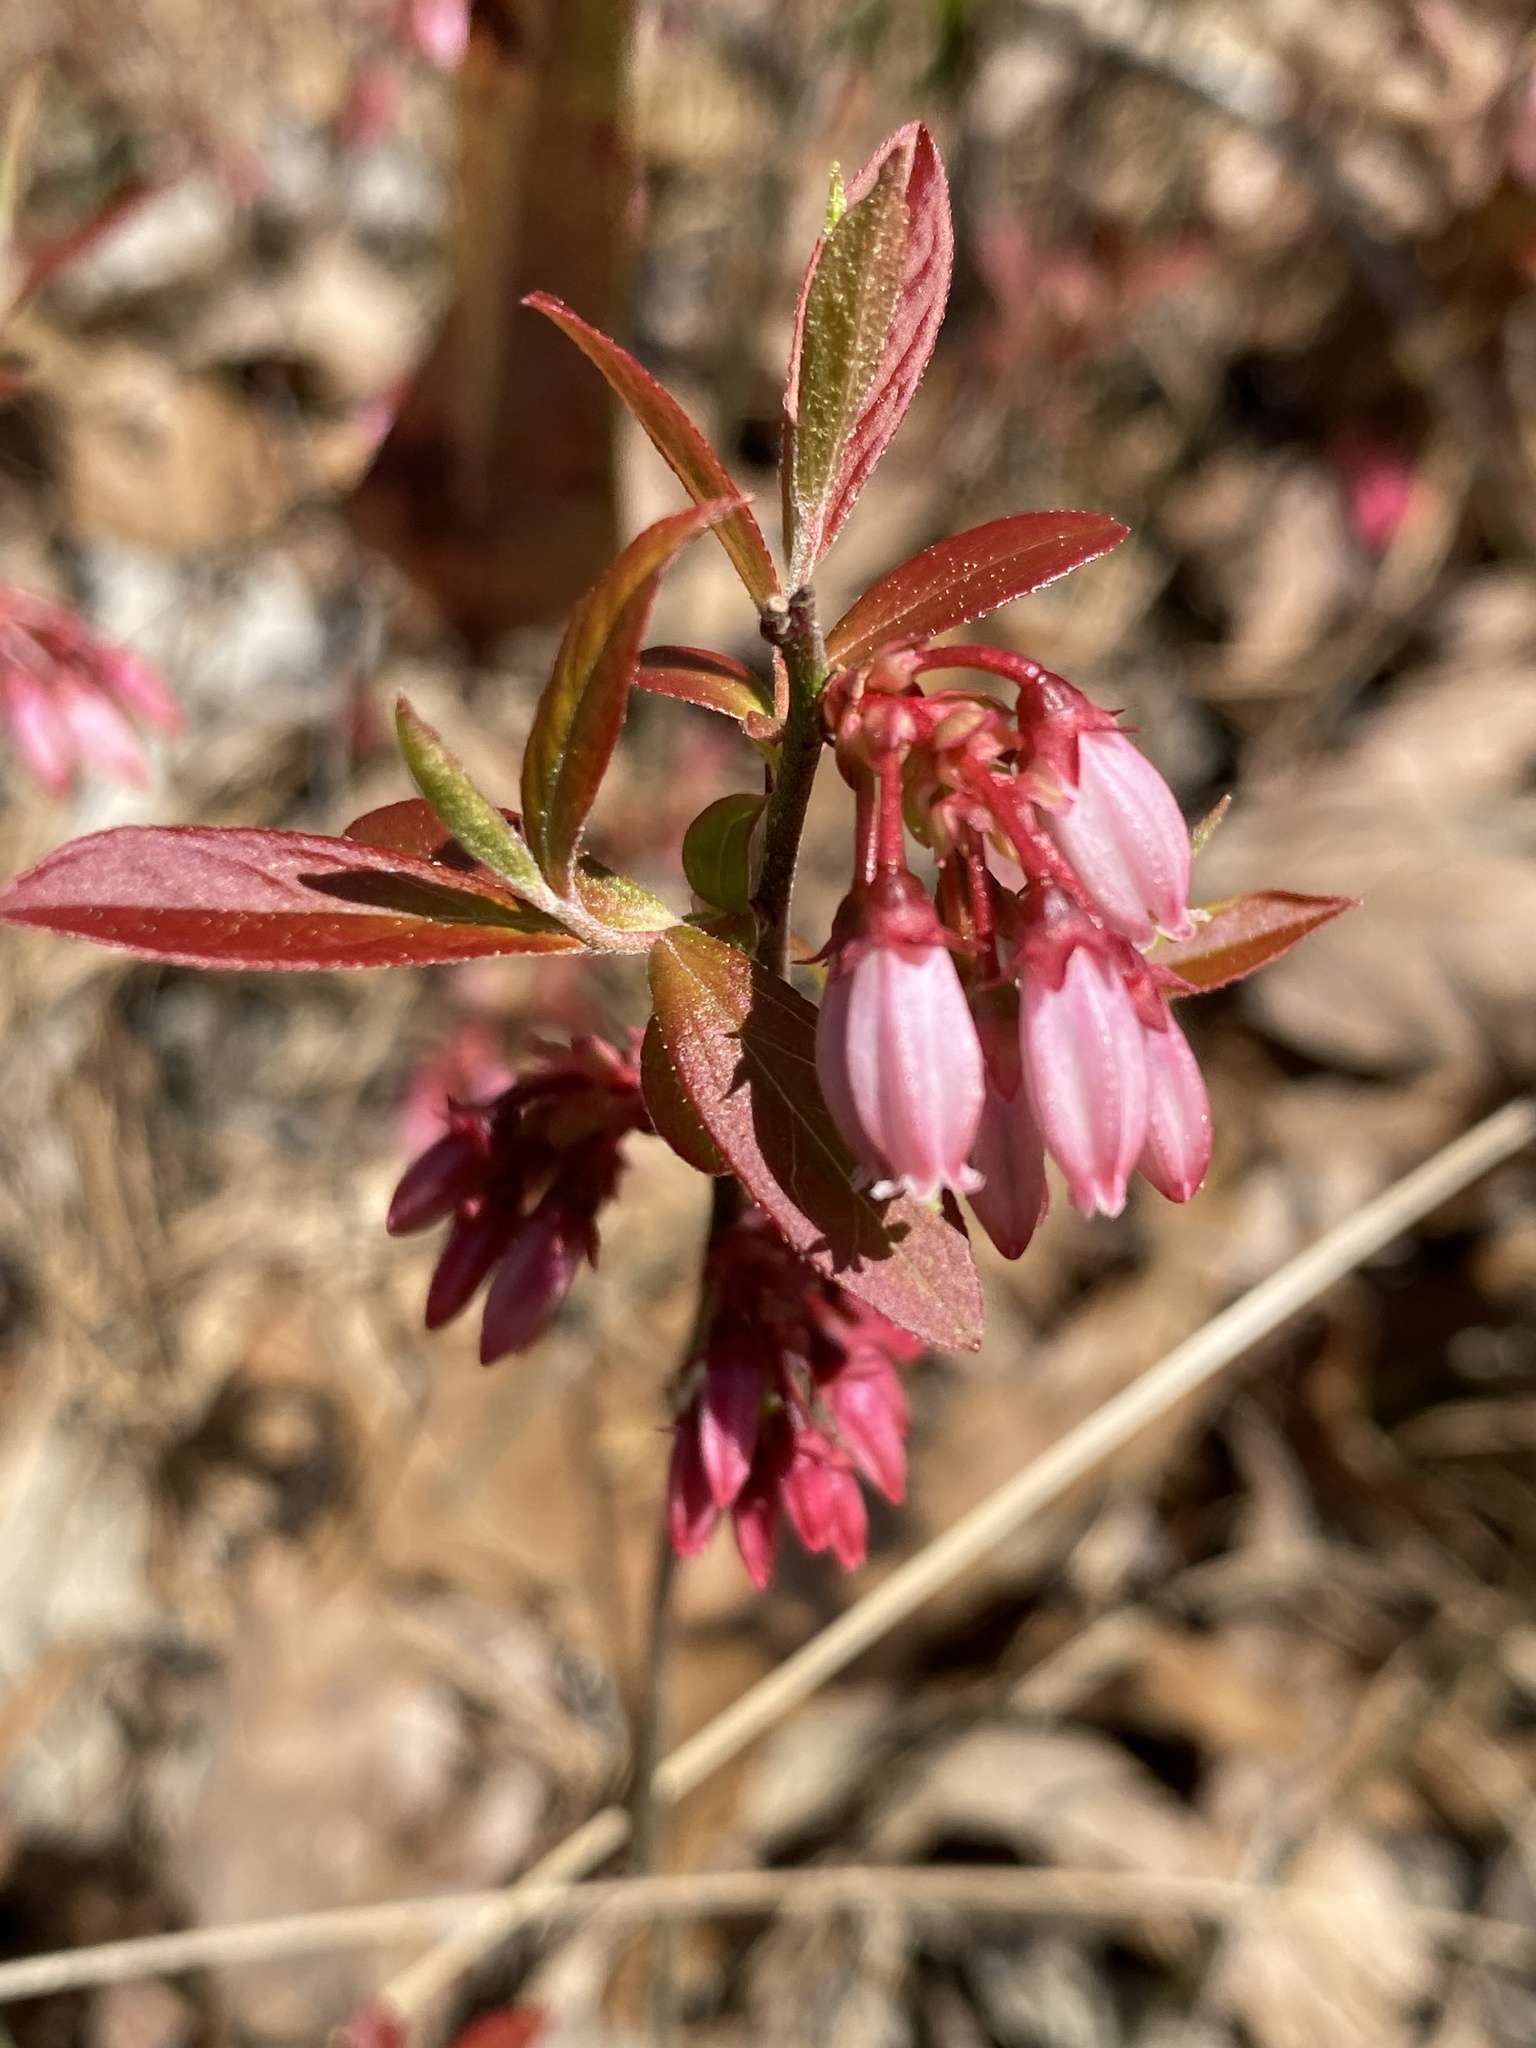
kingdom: Plantae
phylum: Tracheophyta
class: Magnoliopsida
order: Ericales
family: Ericaceae
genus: Vaccinium
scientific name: Vaccinium tenellum
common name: Southern blueberry
